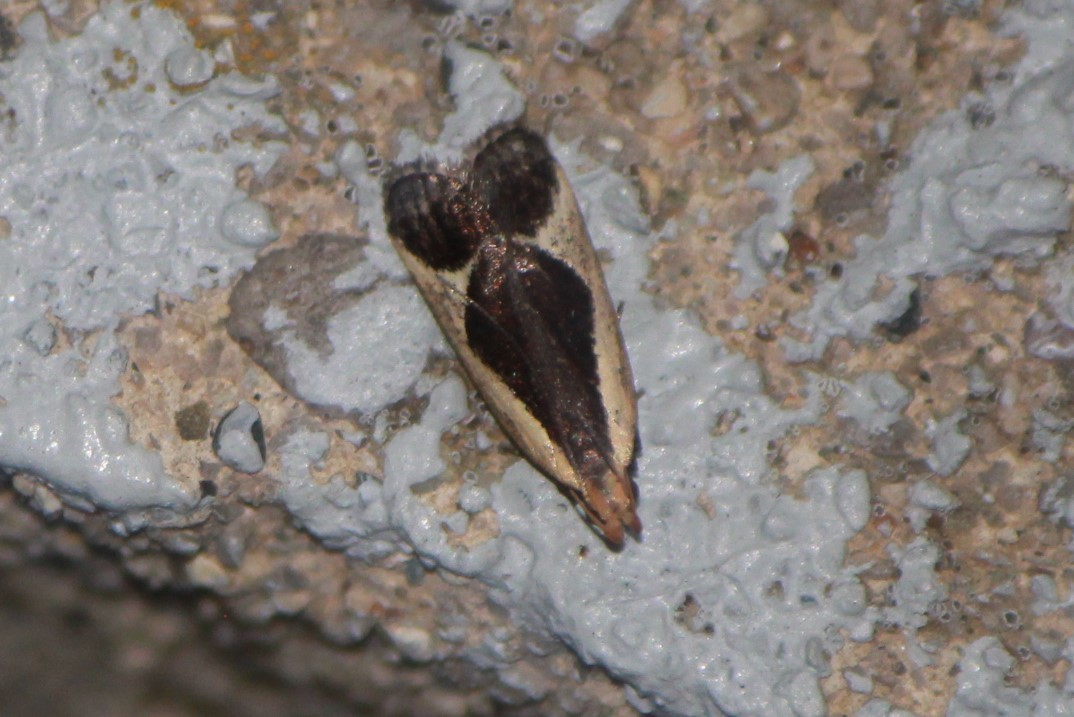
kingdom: Animalia
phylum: Arthropoda
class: Insecta
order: Lepidoptera
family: Gelechiidae
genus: Dichomeris
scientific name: Dichomeris flavocostella
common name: Cream-edged dichomeris moth
